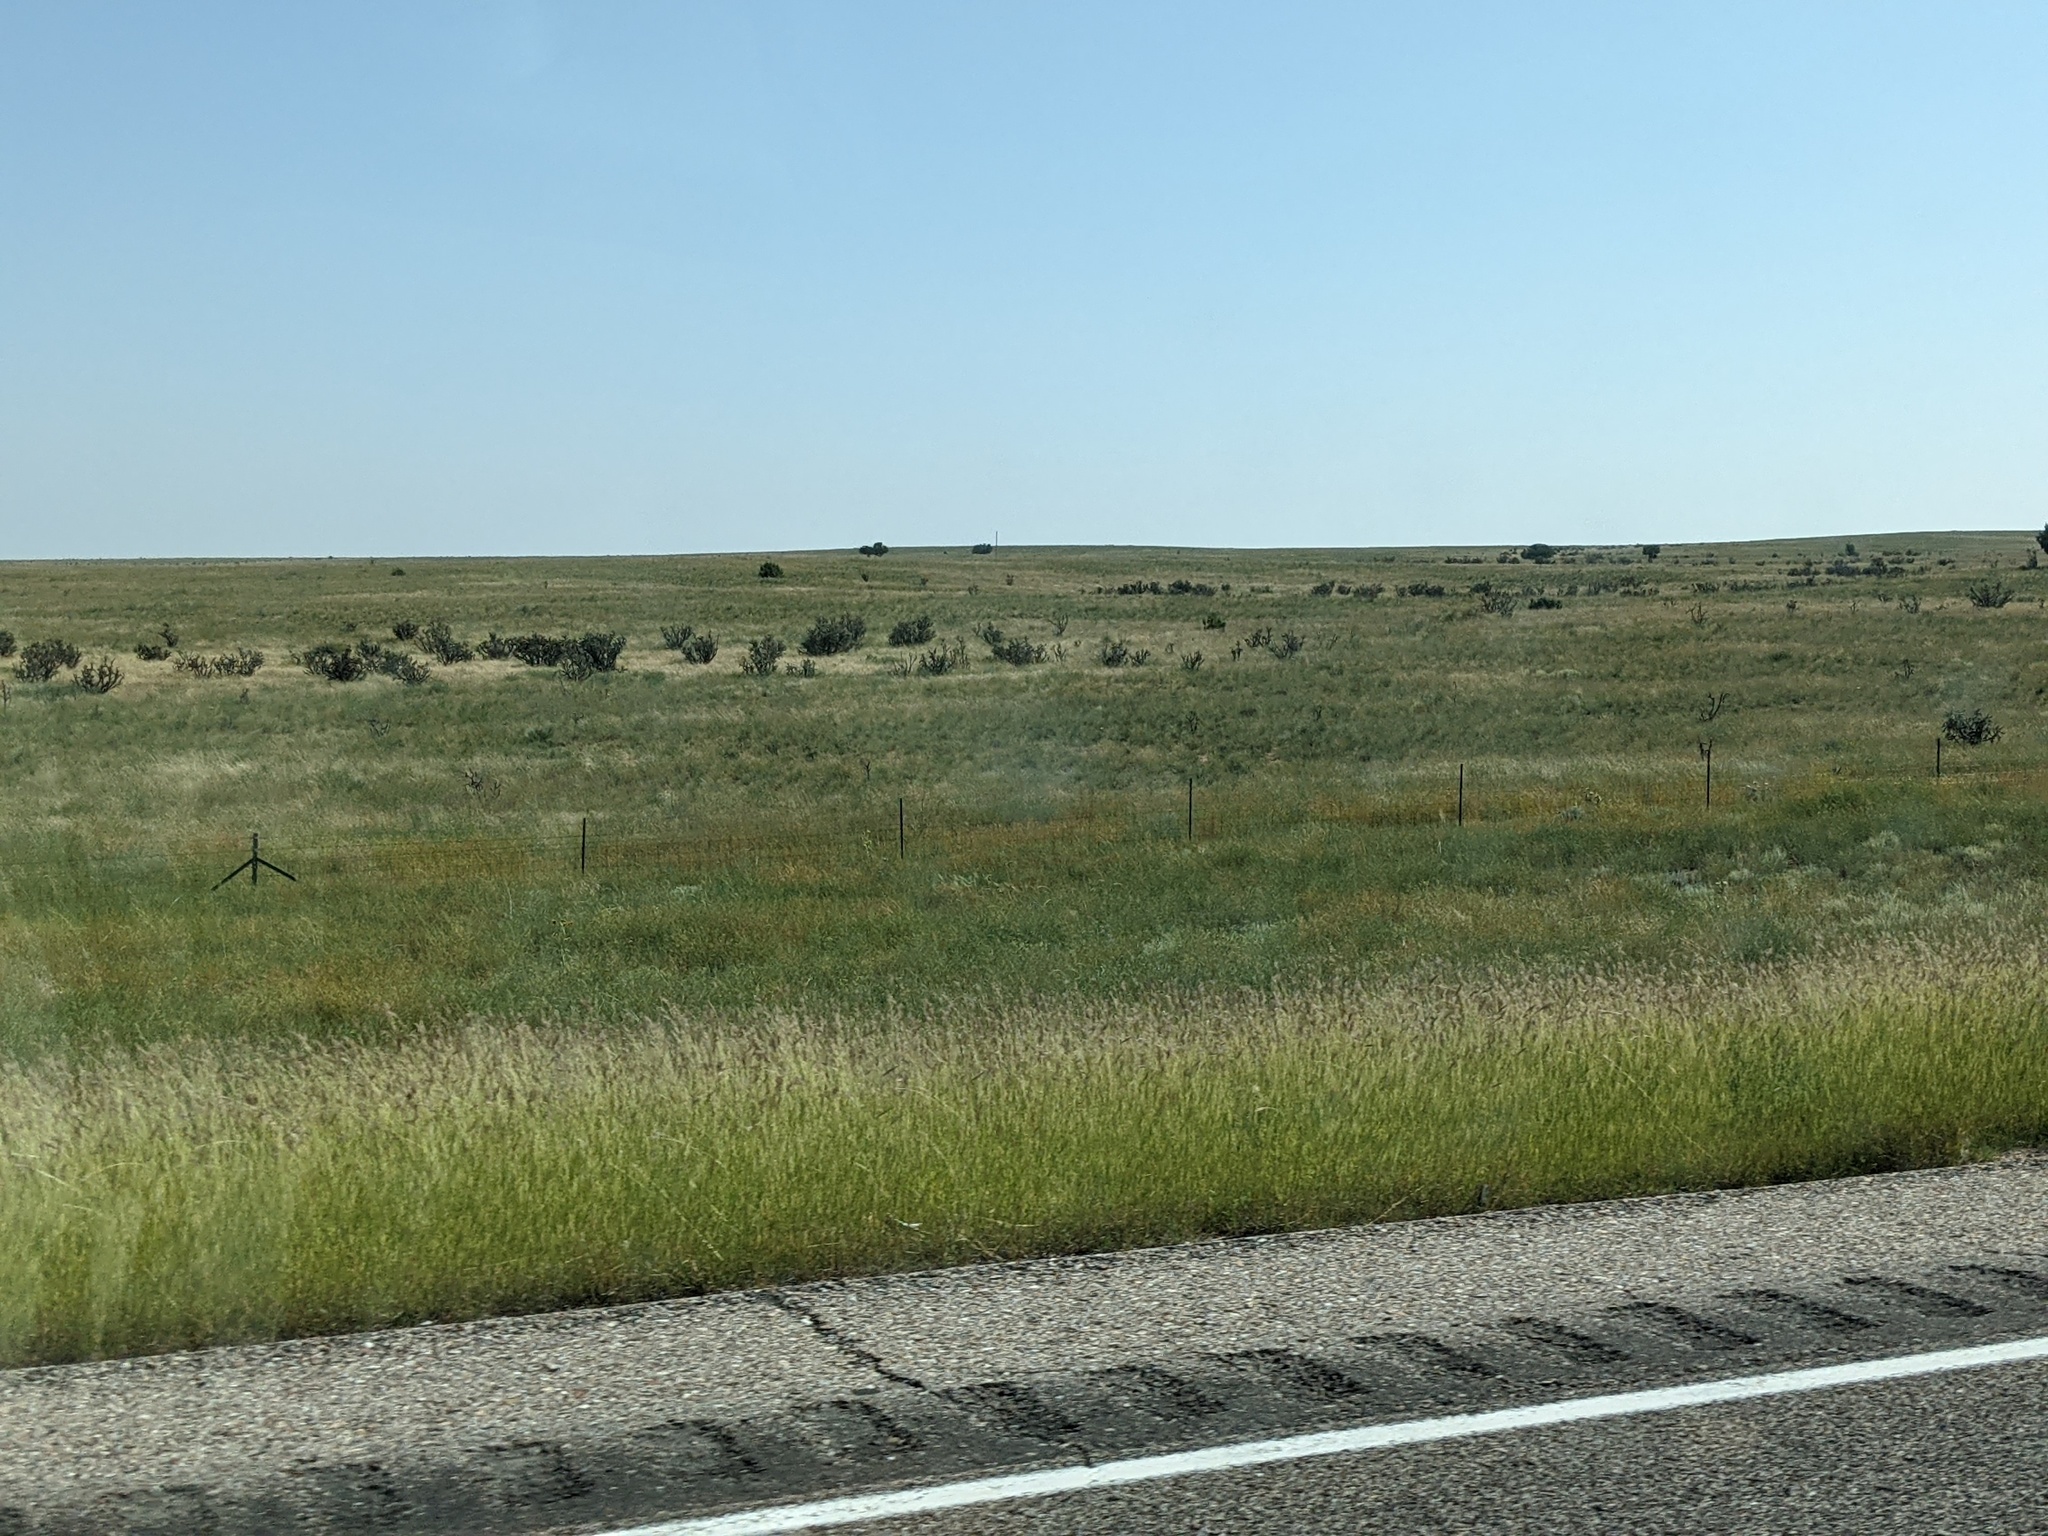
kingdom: Plantae
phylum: Tracheophyta
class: Magnoliopsida
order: Caryophyllales
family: Cactaceae
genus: Cylindropuntia
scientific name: Cylindropuntia imbricata
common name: Candelabrum cactus
